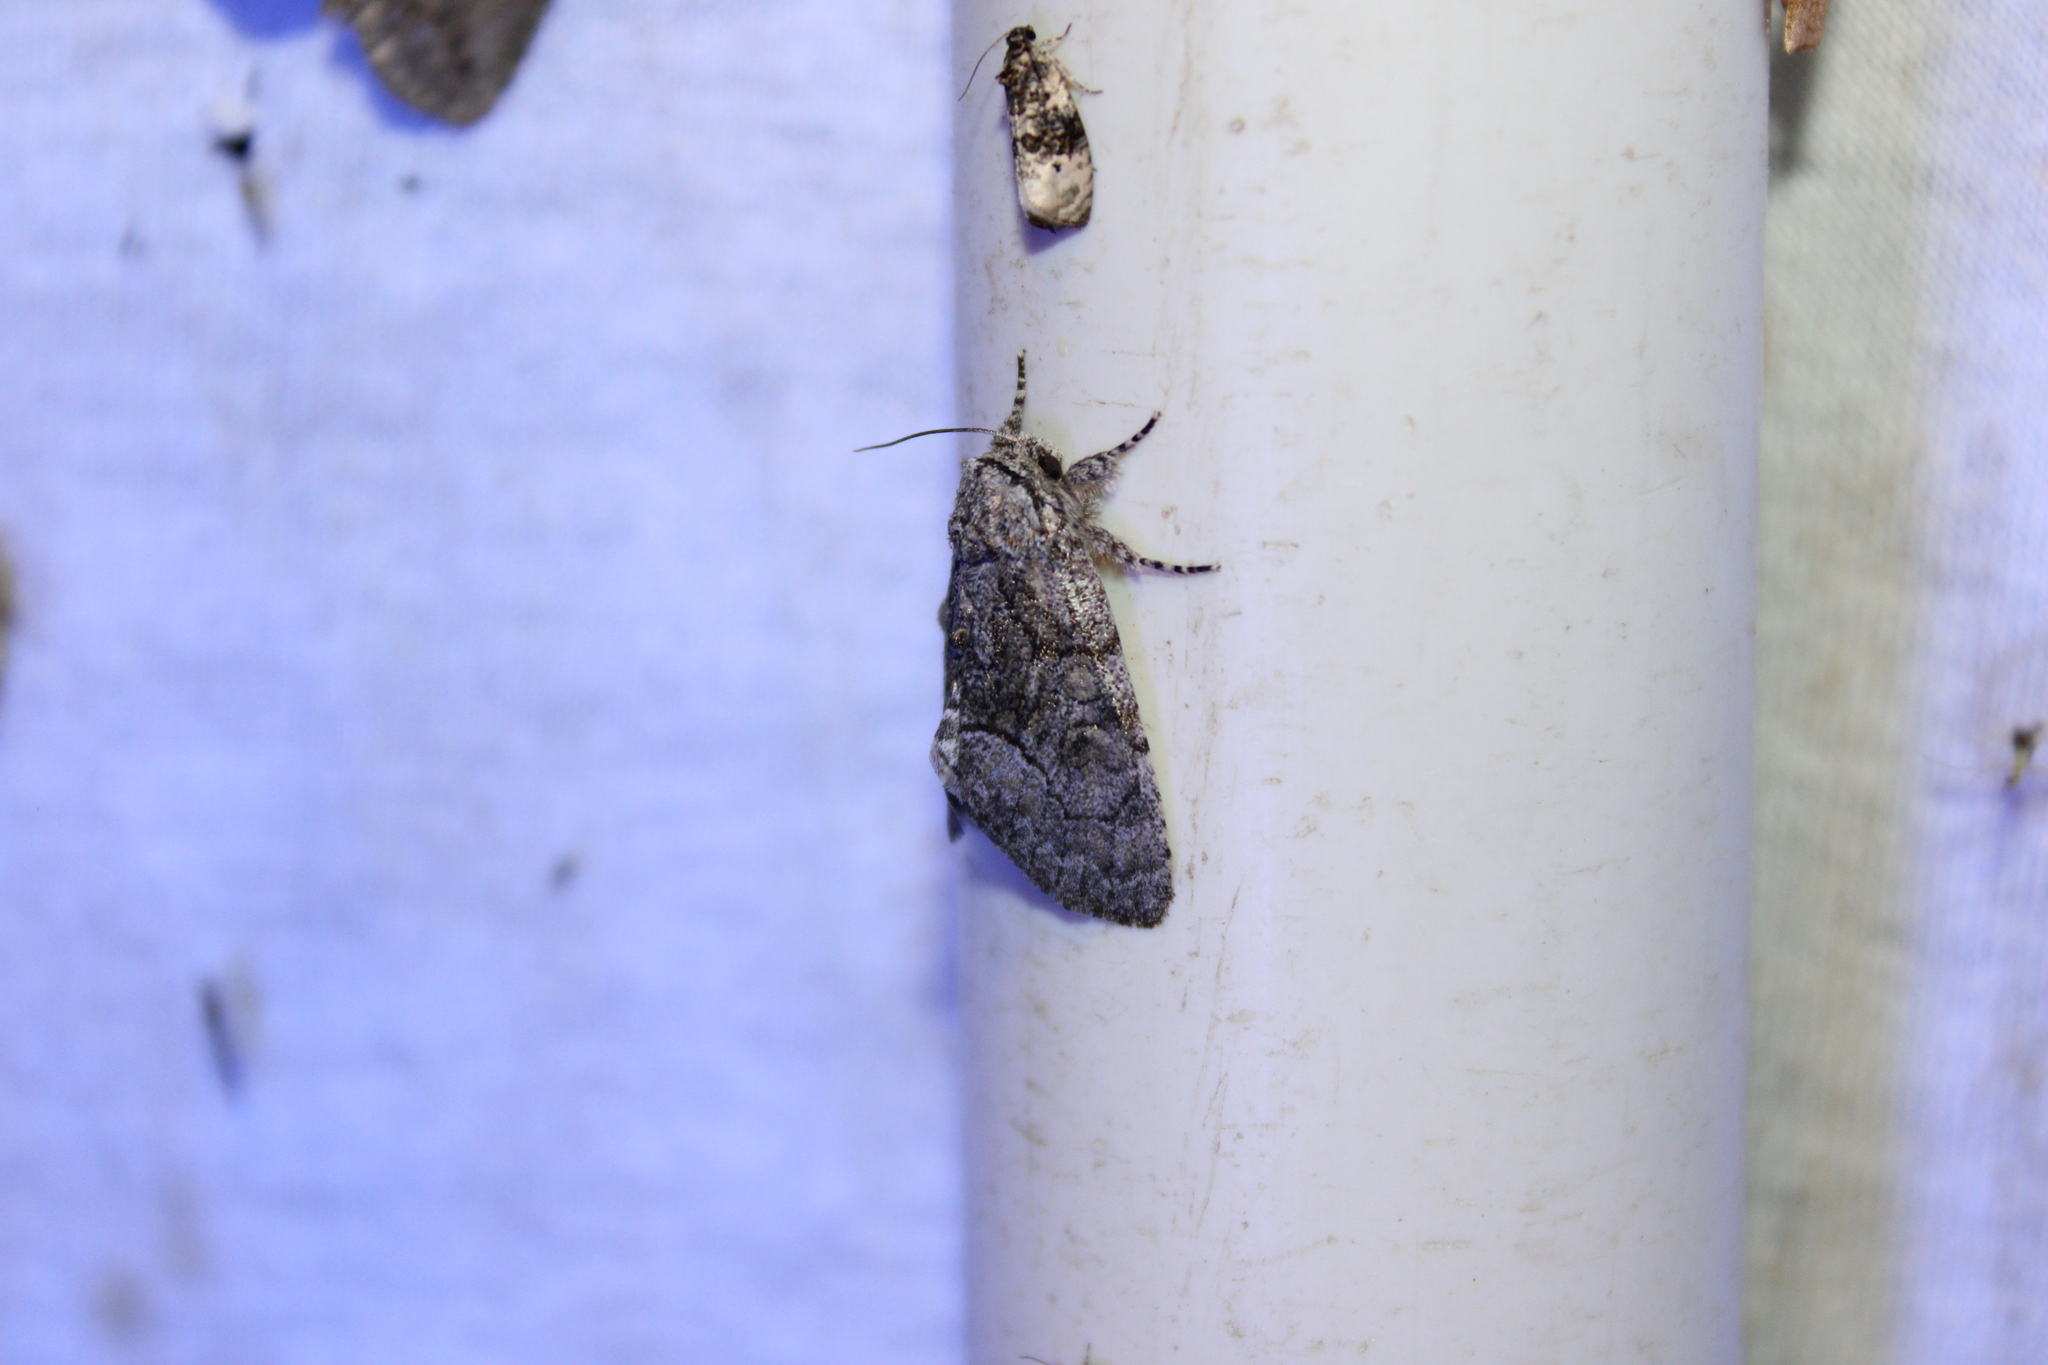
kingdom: Animalia
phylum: Arthropoda
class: Insecta
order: Lepidoptera
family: Noctuidae
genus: Raphia
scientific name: Raphia frater
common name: Brother
